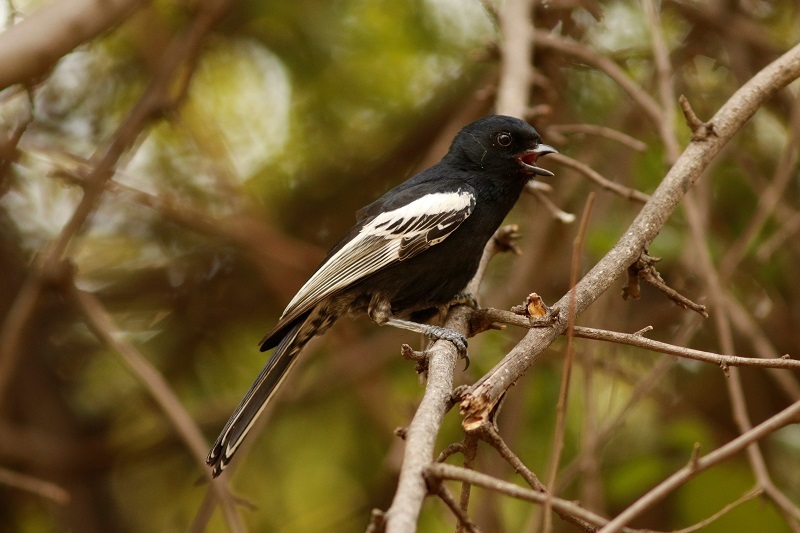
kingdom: Animalia
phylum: Chordata
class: Aves
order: Passeriformes
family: Paridae
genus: Parus
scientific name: Parus niger
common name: Southern black tit
